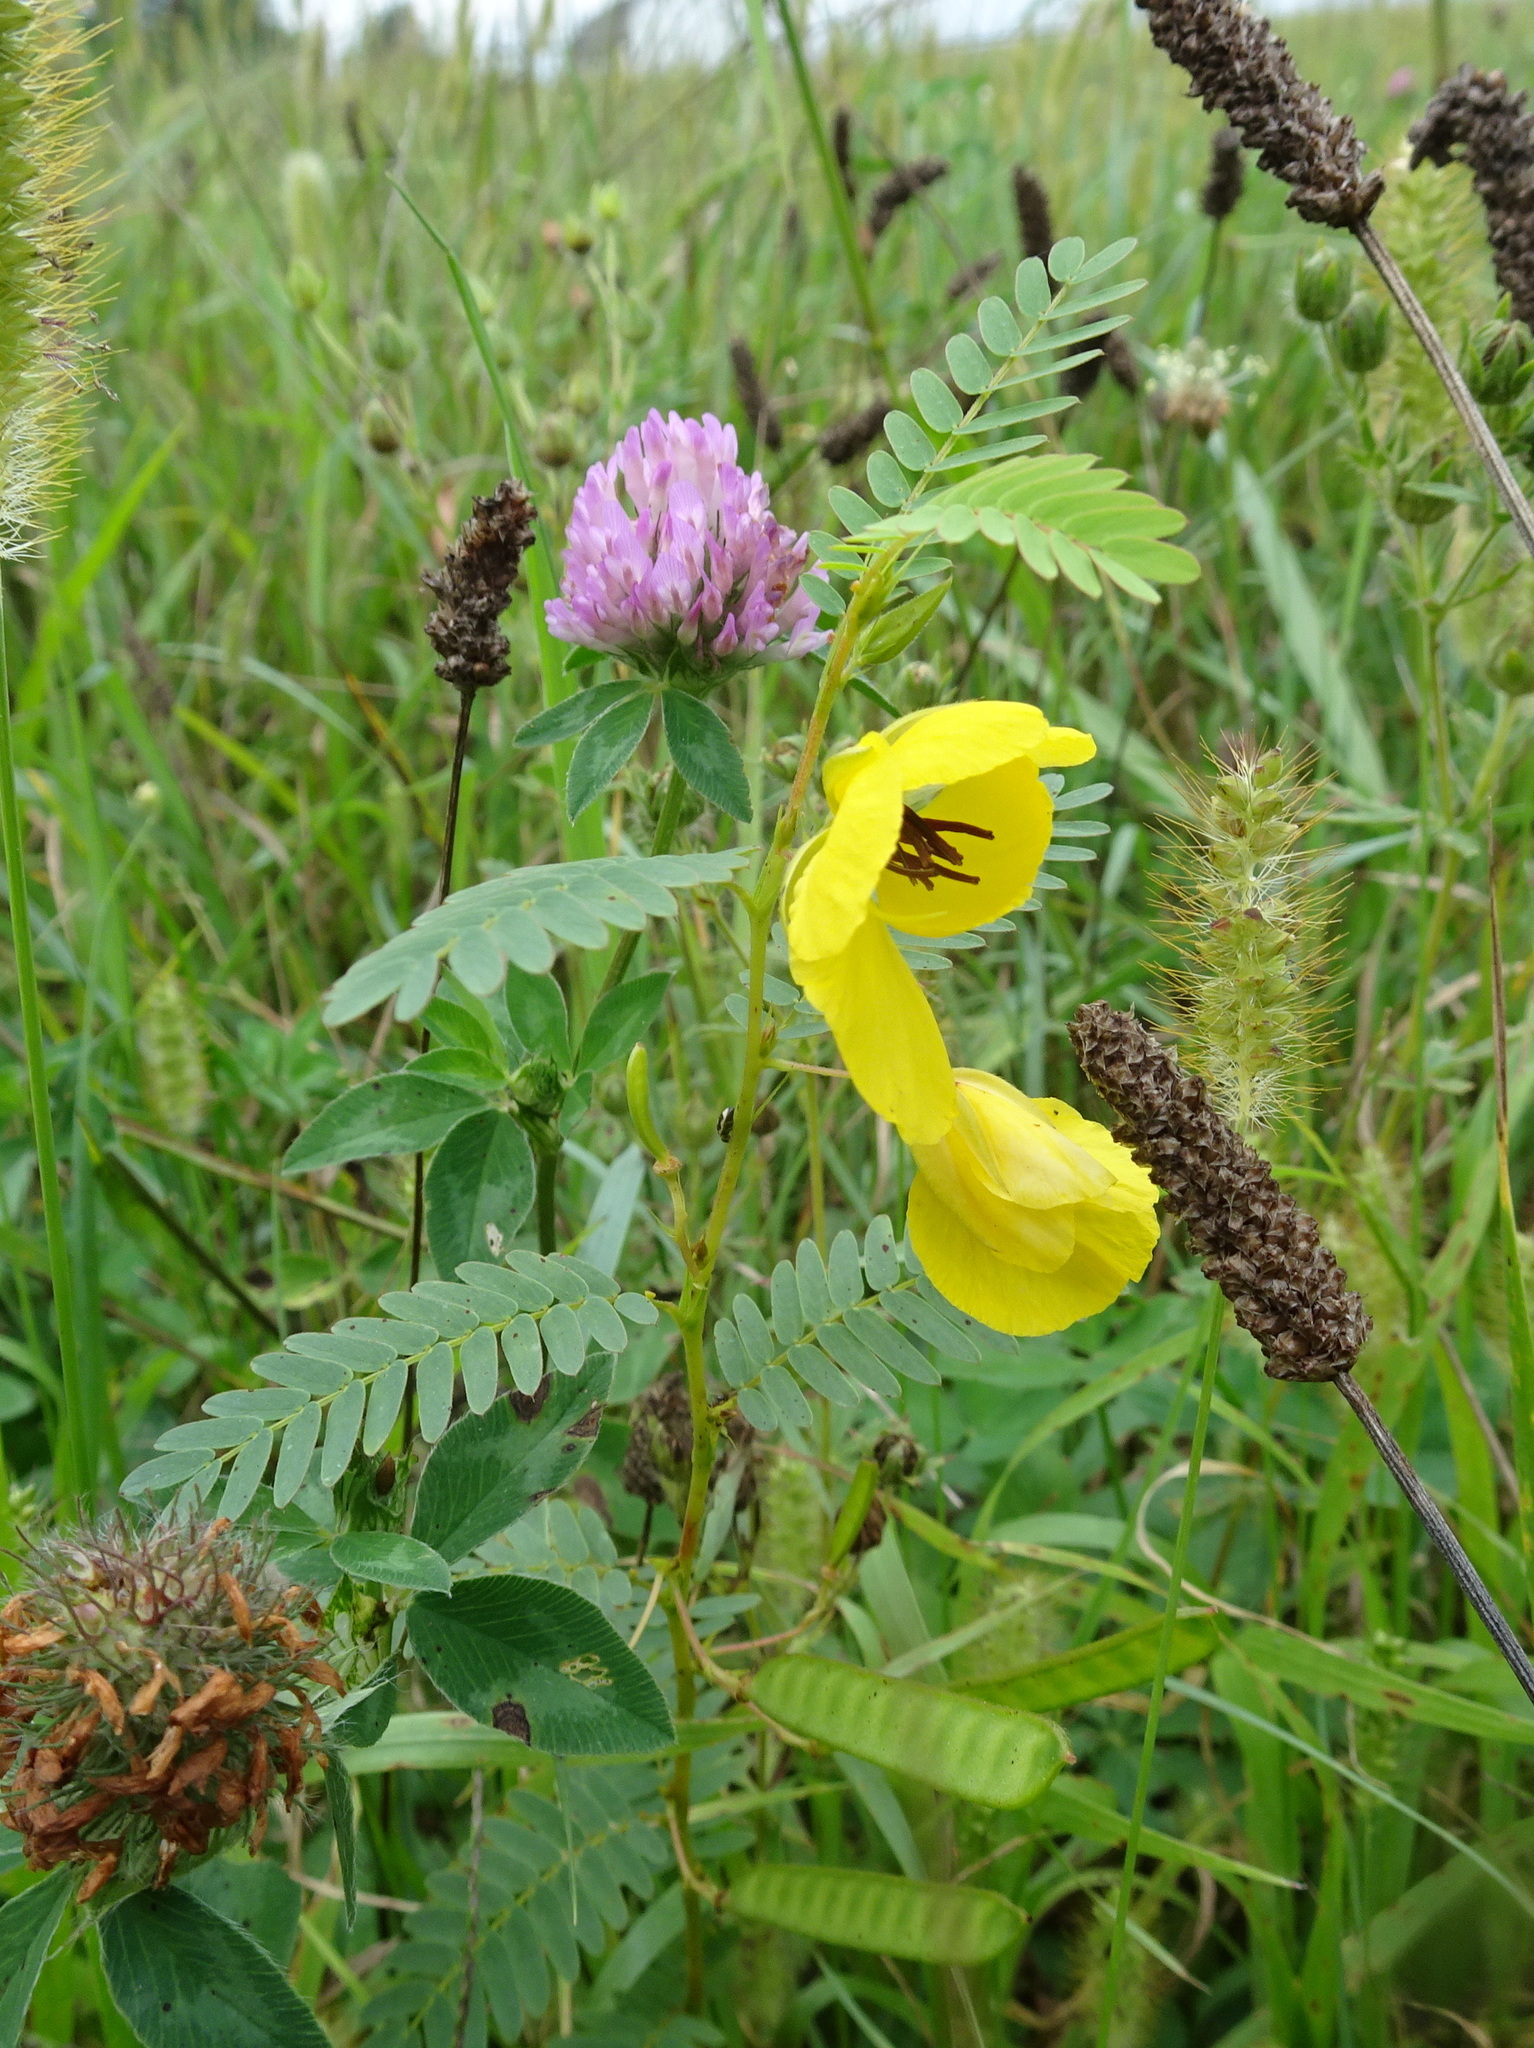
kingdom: Plantae
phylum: Tracheophyta
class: Magnoliopsida
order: Fabales
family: Fabaceae
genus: Chamaecrista
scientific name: Chamaecrista fasciculata
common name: Golden cassia
